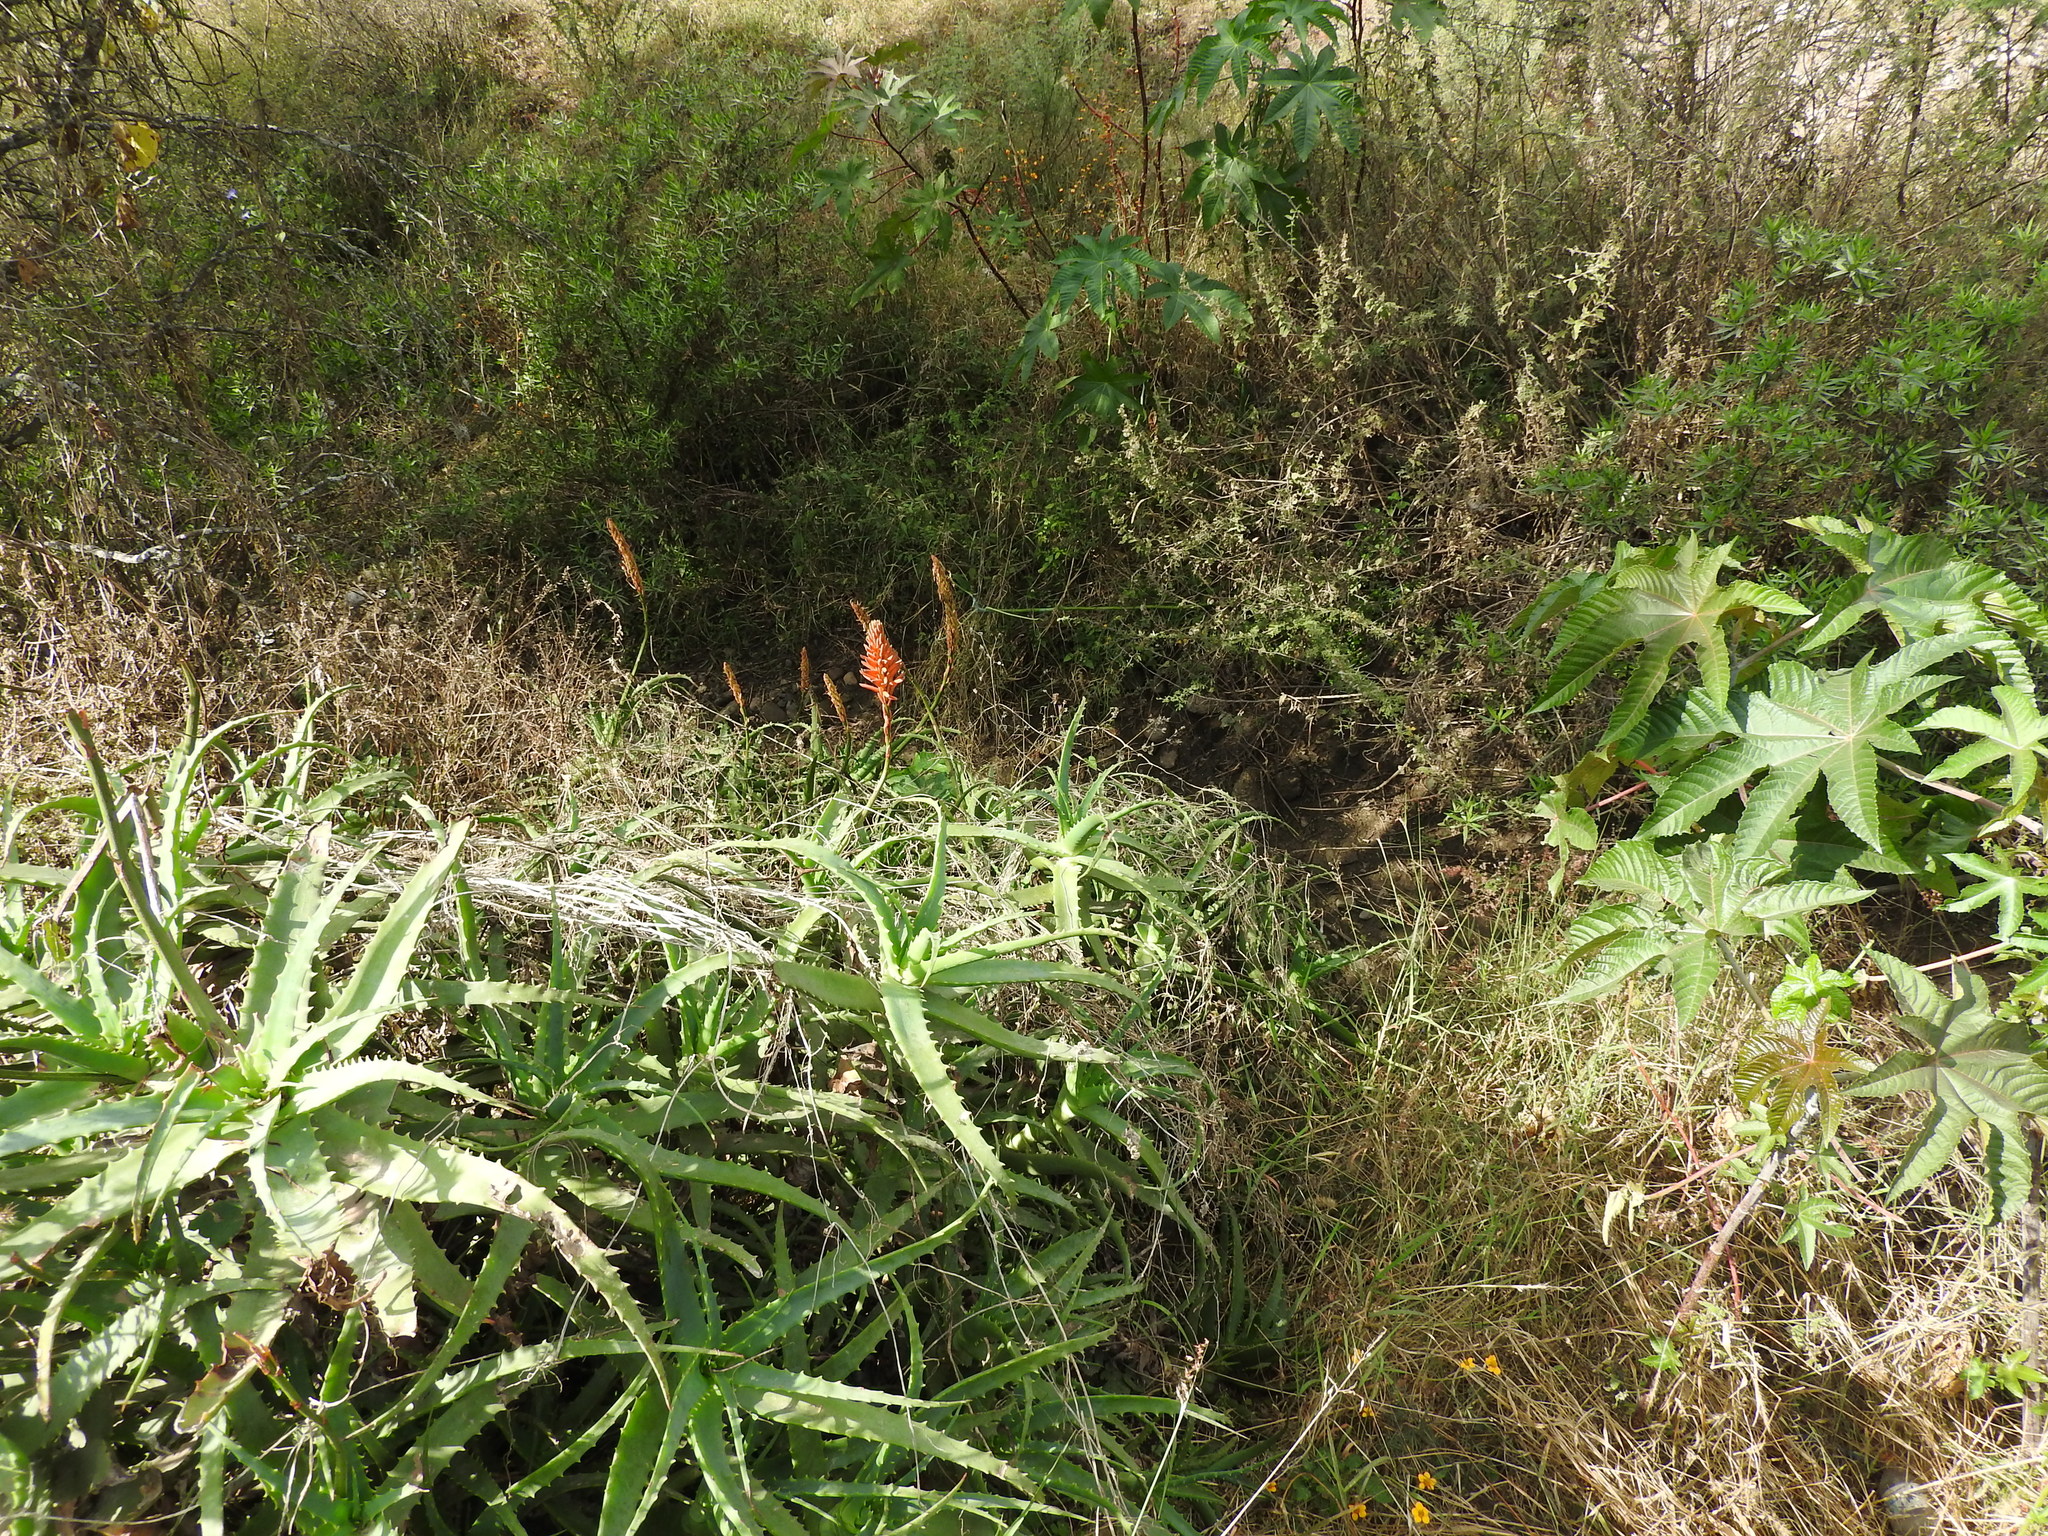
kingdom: Plantae
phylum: Tracheophyta
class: Liliopsida
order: Asparagales
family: Asphodelaceae
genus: Aloe
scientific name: Aloe arborescens
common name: Candelabra aloe
